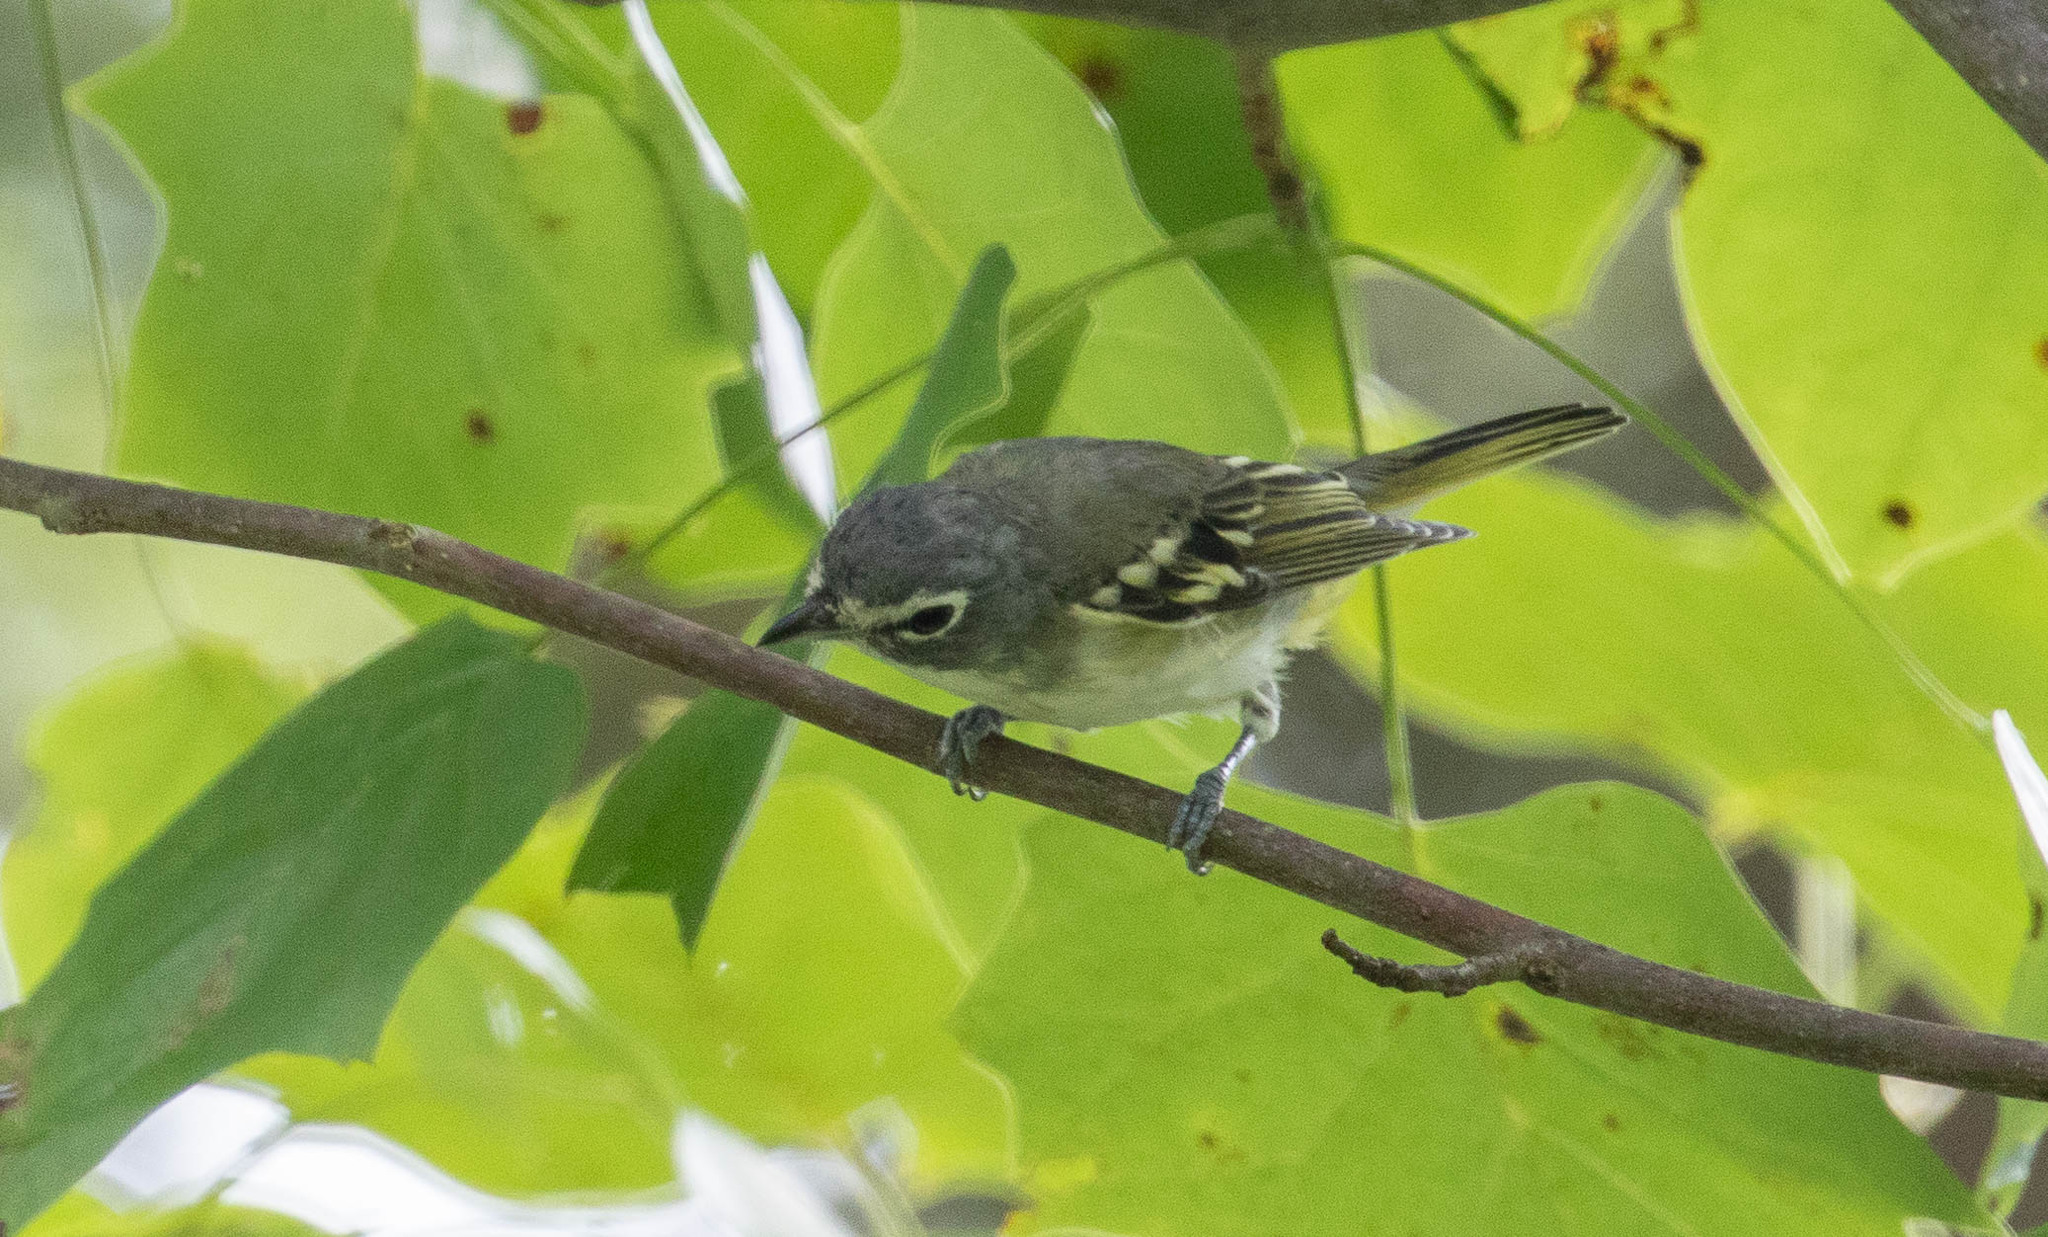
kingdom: Animalia
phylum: Chordata
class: Aves
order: Passeriformes
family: Vireonidae
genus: Vireo
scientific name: Vireo solitarius
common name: Blue-headed vireo
